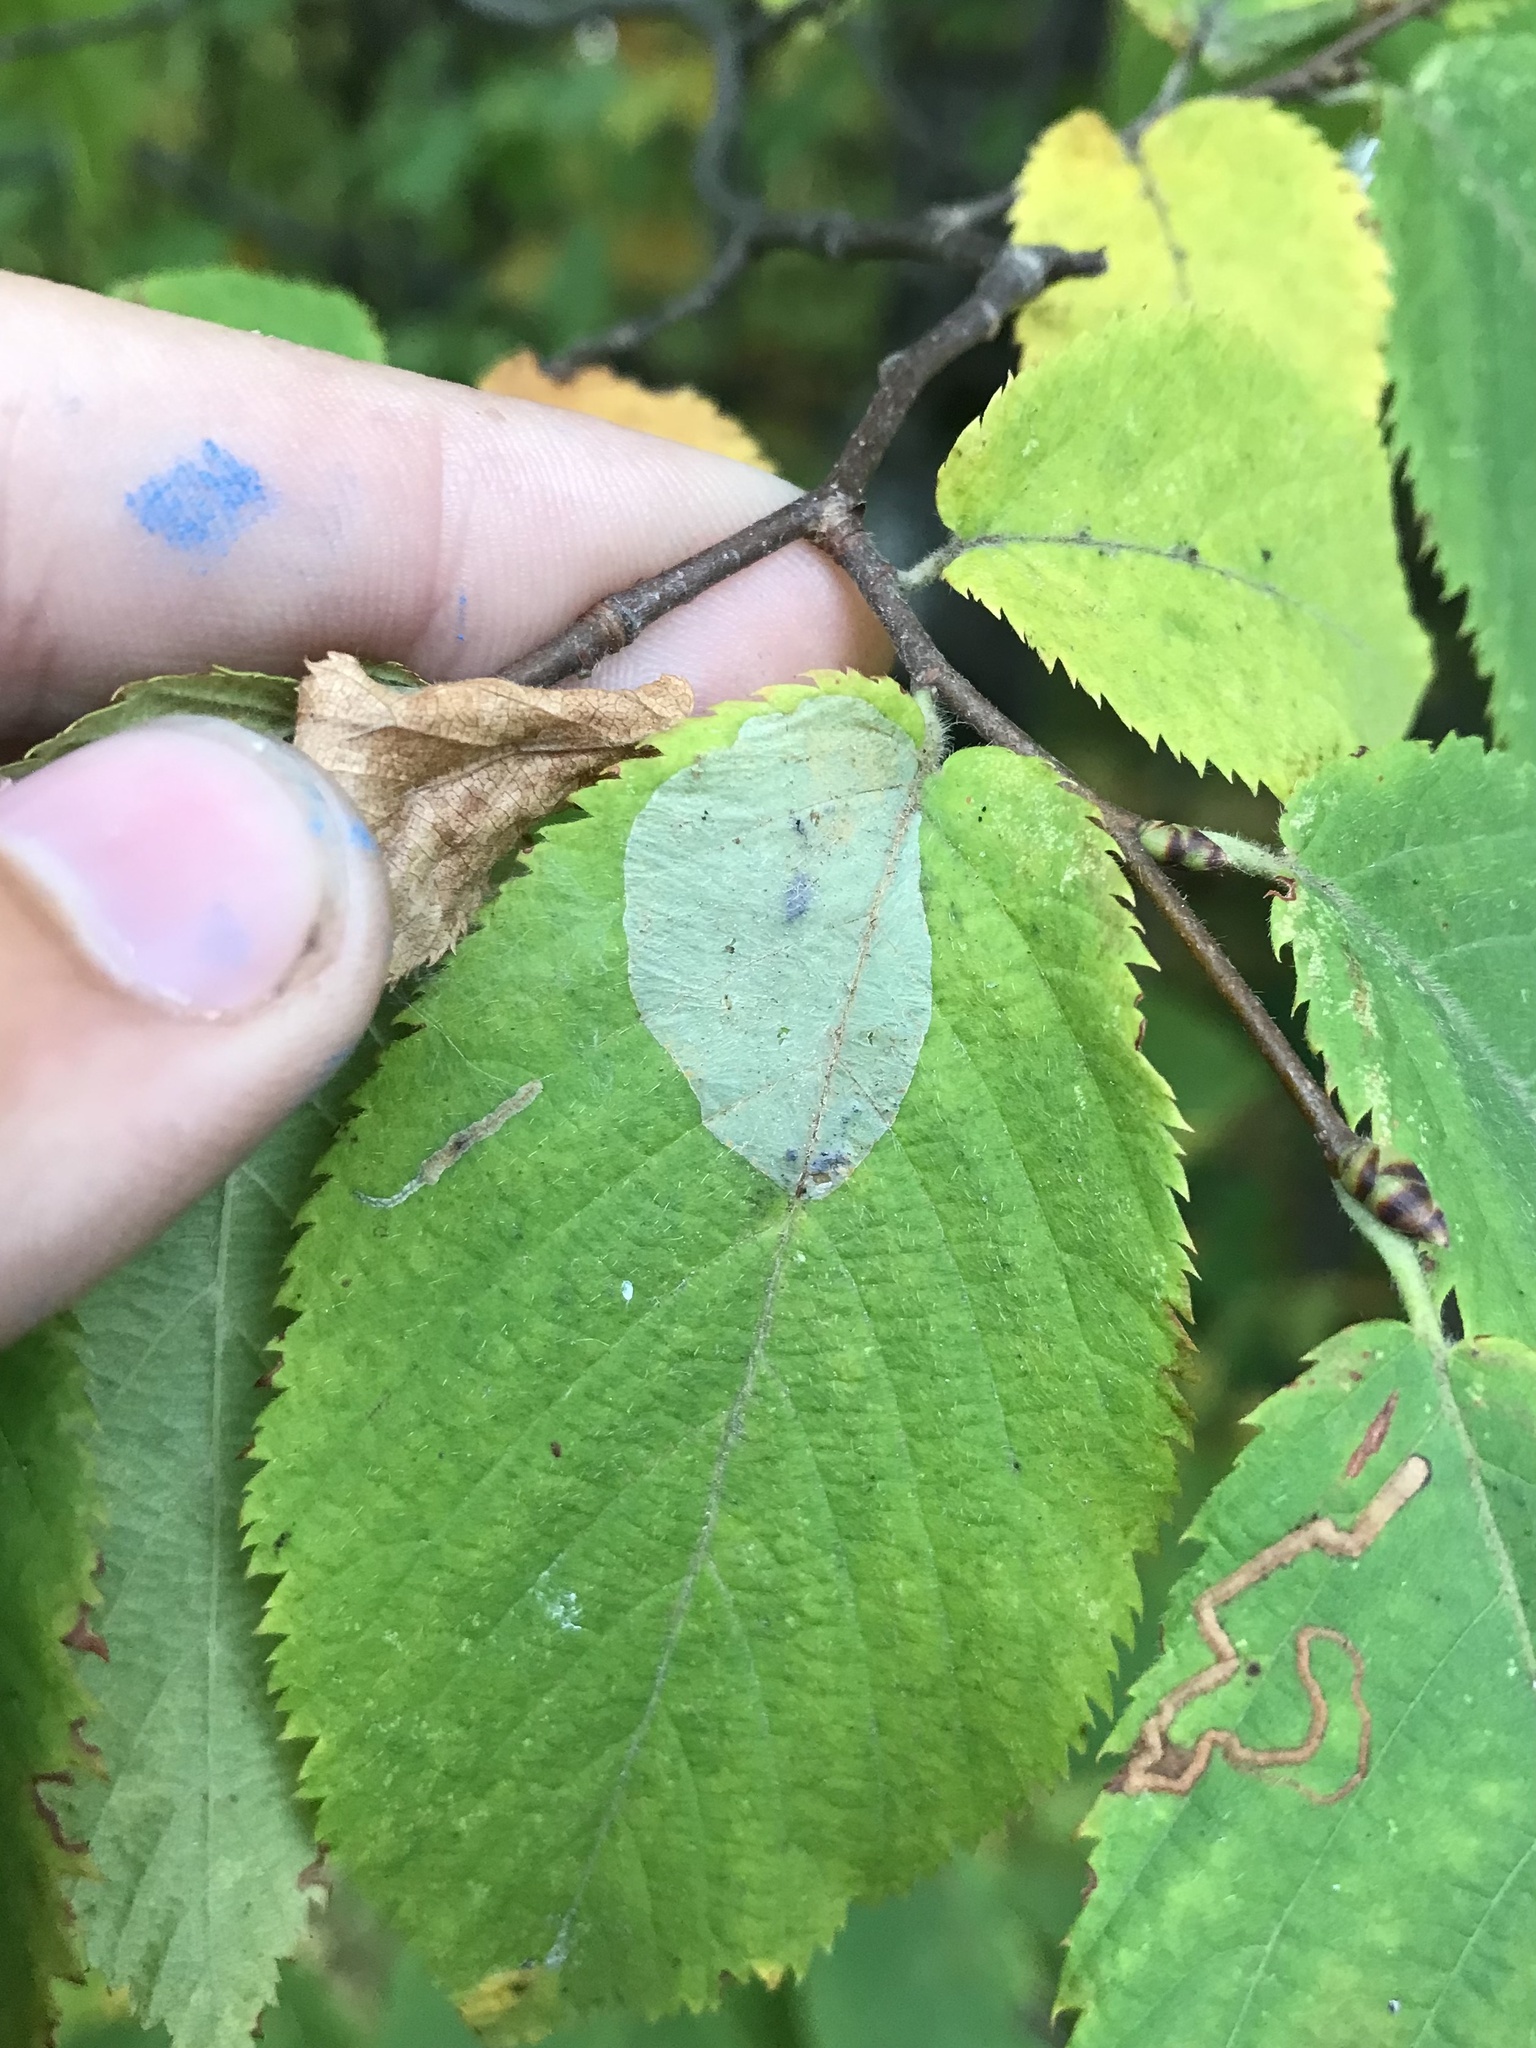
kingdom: Animalia
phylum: Arthropoda
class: Insecta
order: Lepidoptera
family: Gracillariidae
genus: Phyllonorycter
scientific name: Phyllonorycter tritaenianella
